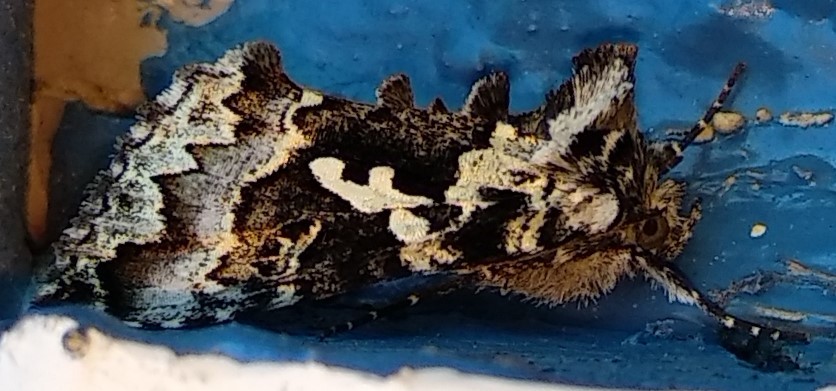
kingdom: Animalia
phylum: Arthropoda
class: Insecta
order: Lepidoptera
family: Noctuidae
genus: Syngrapha
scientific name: Syngrapha rectangula
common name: Angulated cutworm
